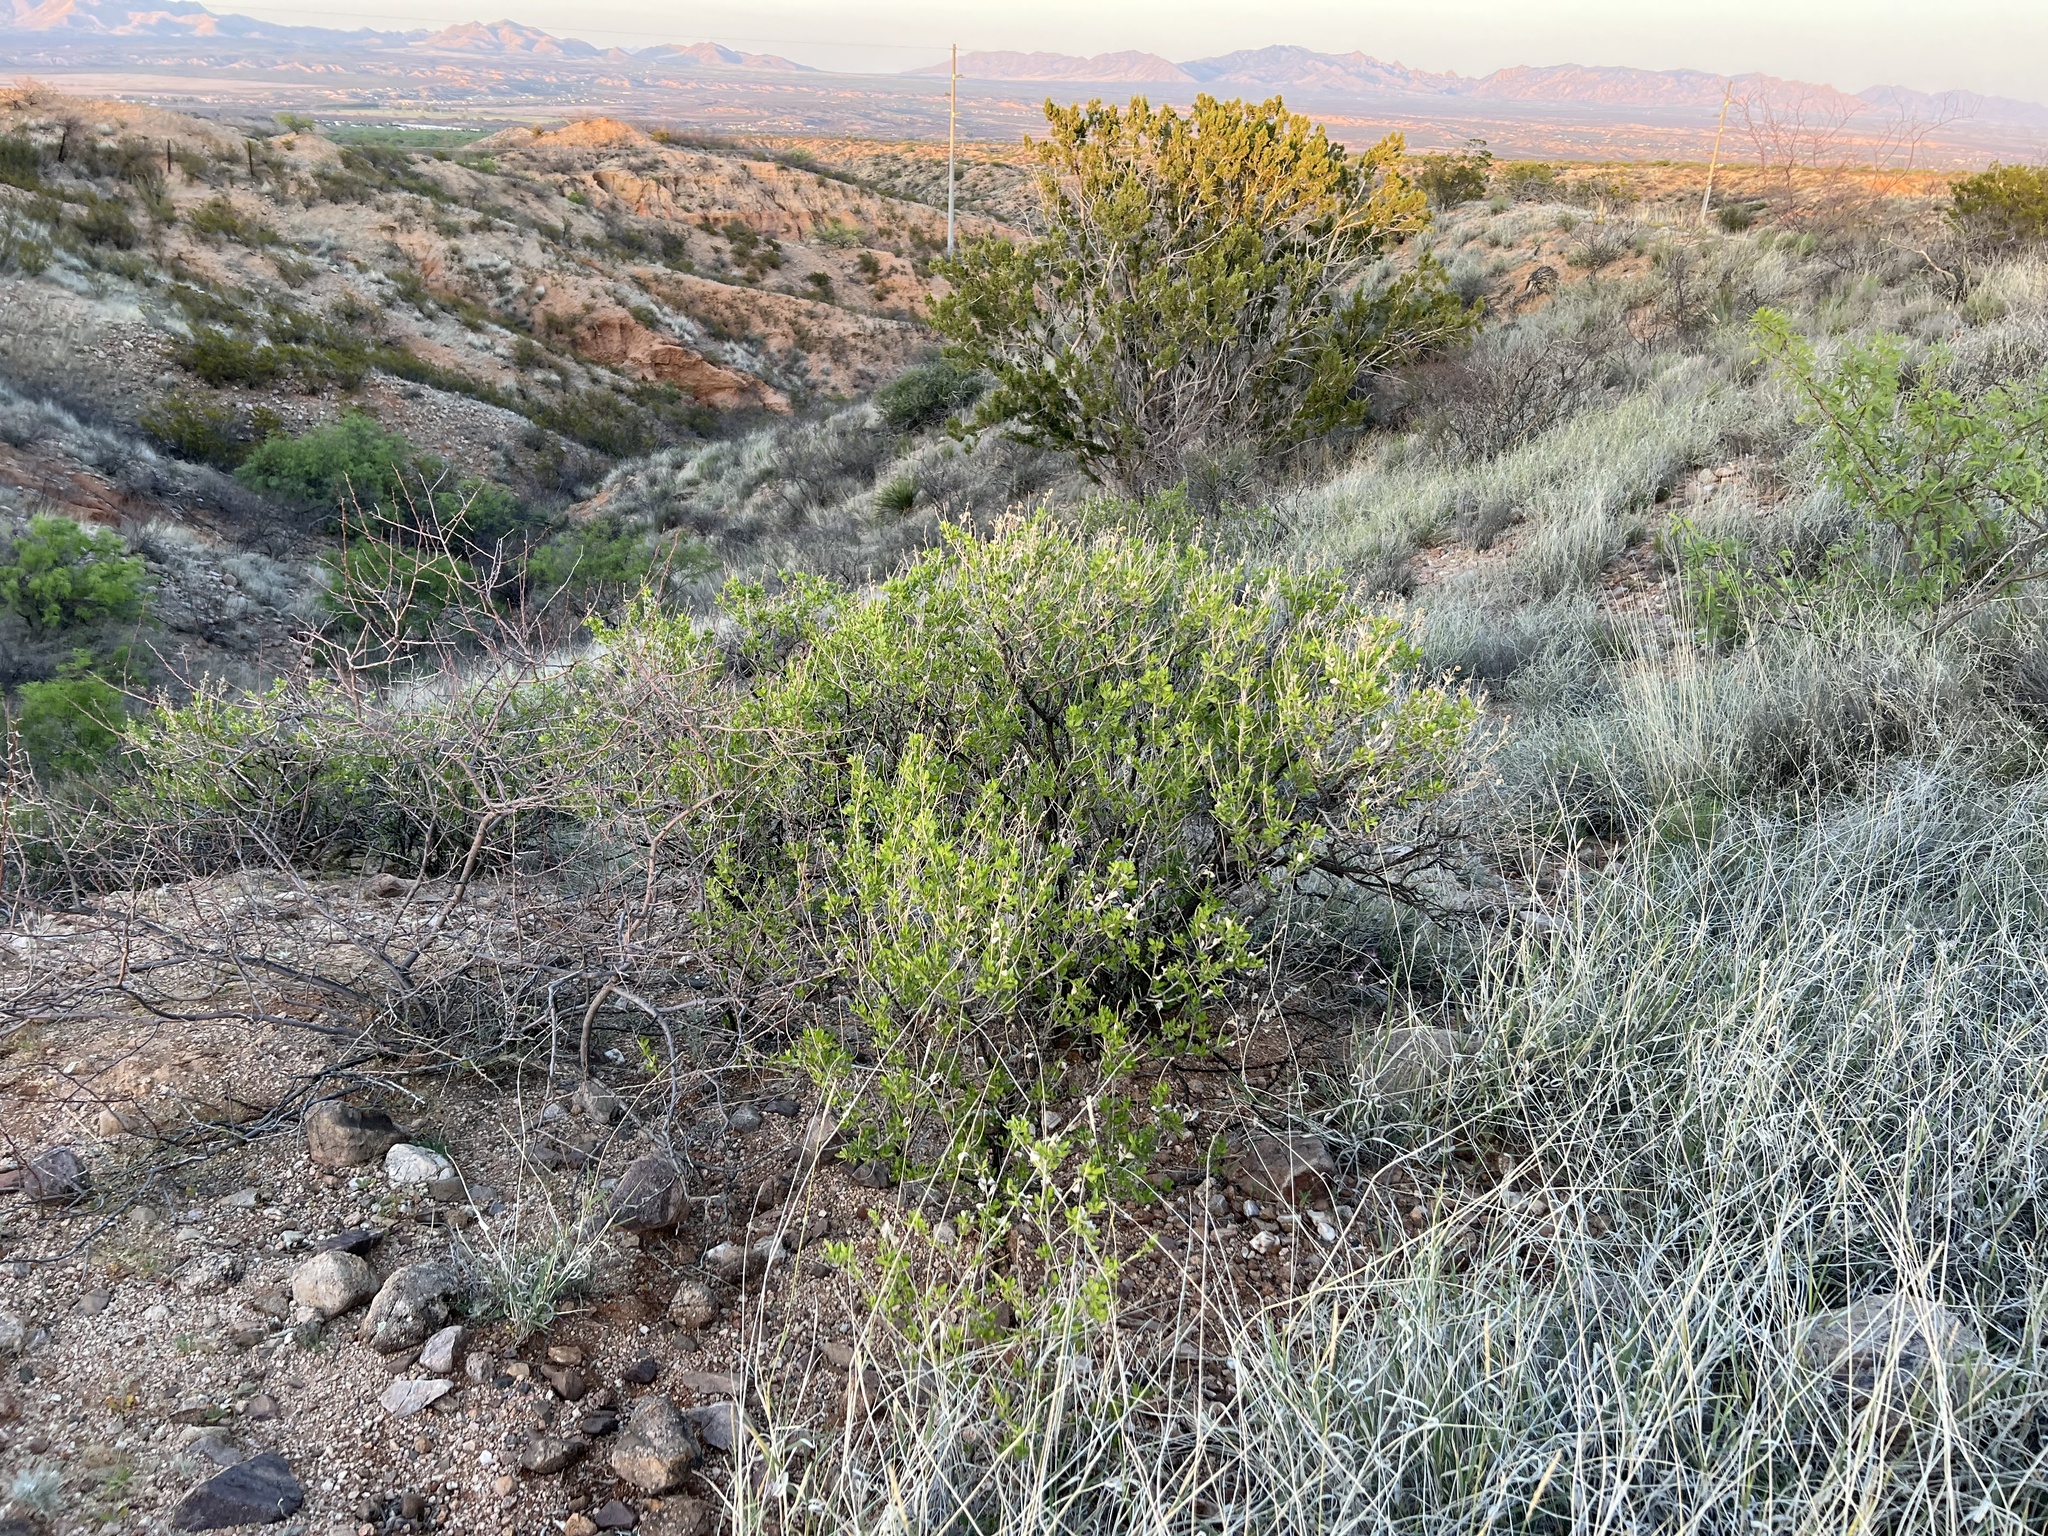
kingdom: Plantae
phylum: Tracheophyta
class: Magnoliopsida
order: Asterales
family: Asteraceae
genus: Flourensia
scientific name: Flourensia cernua
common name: Varnishbush
